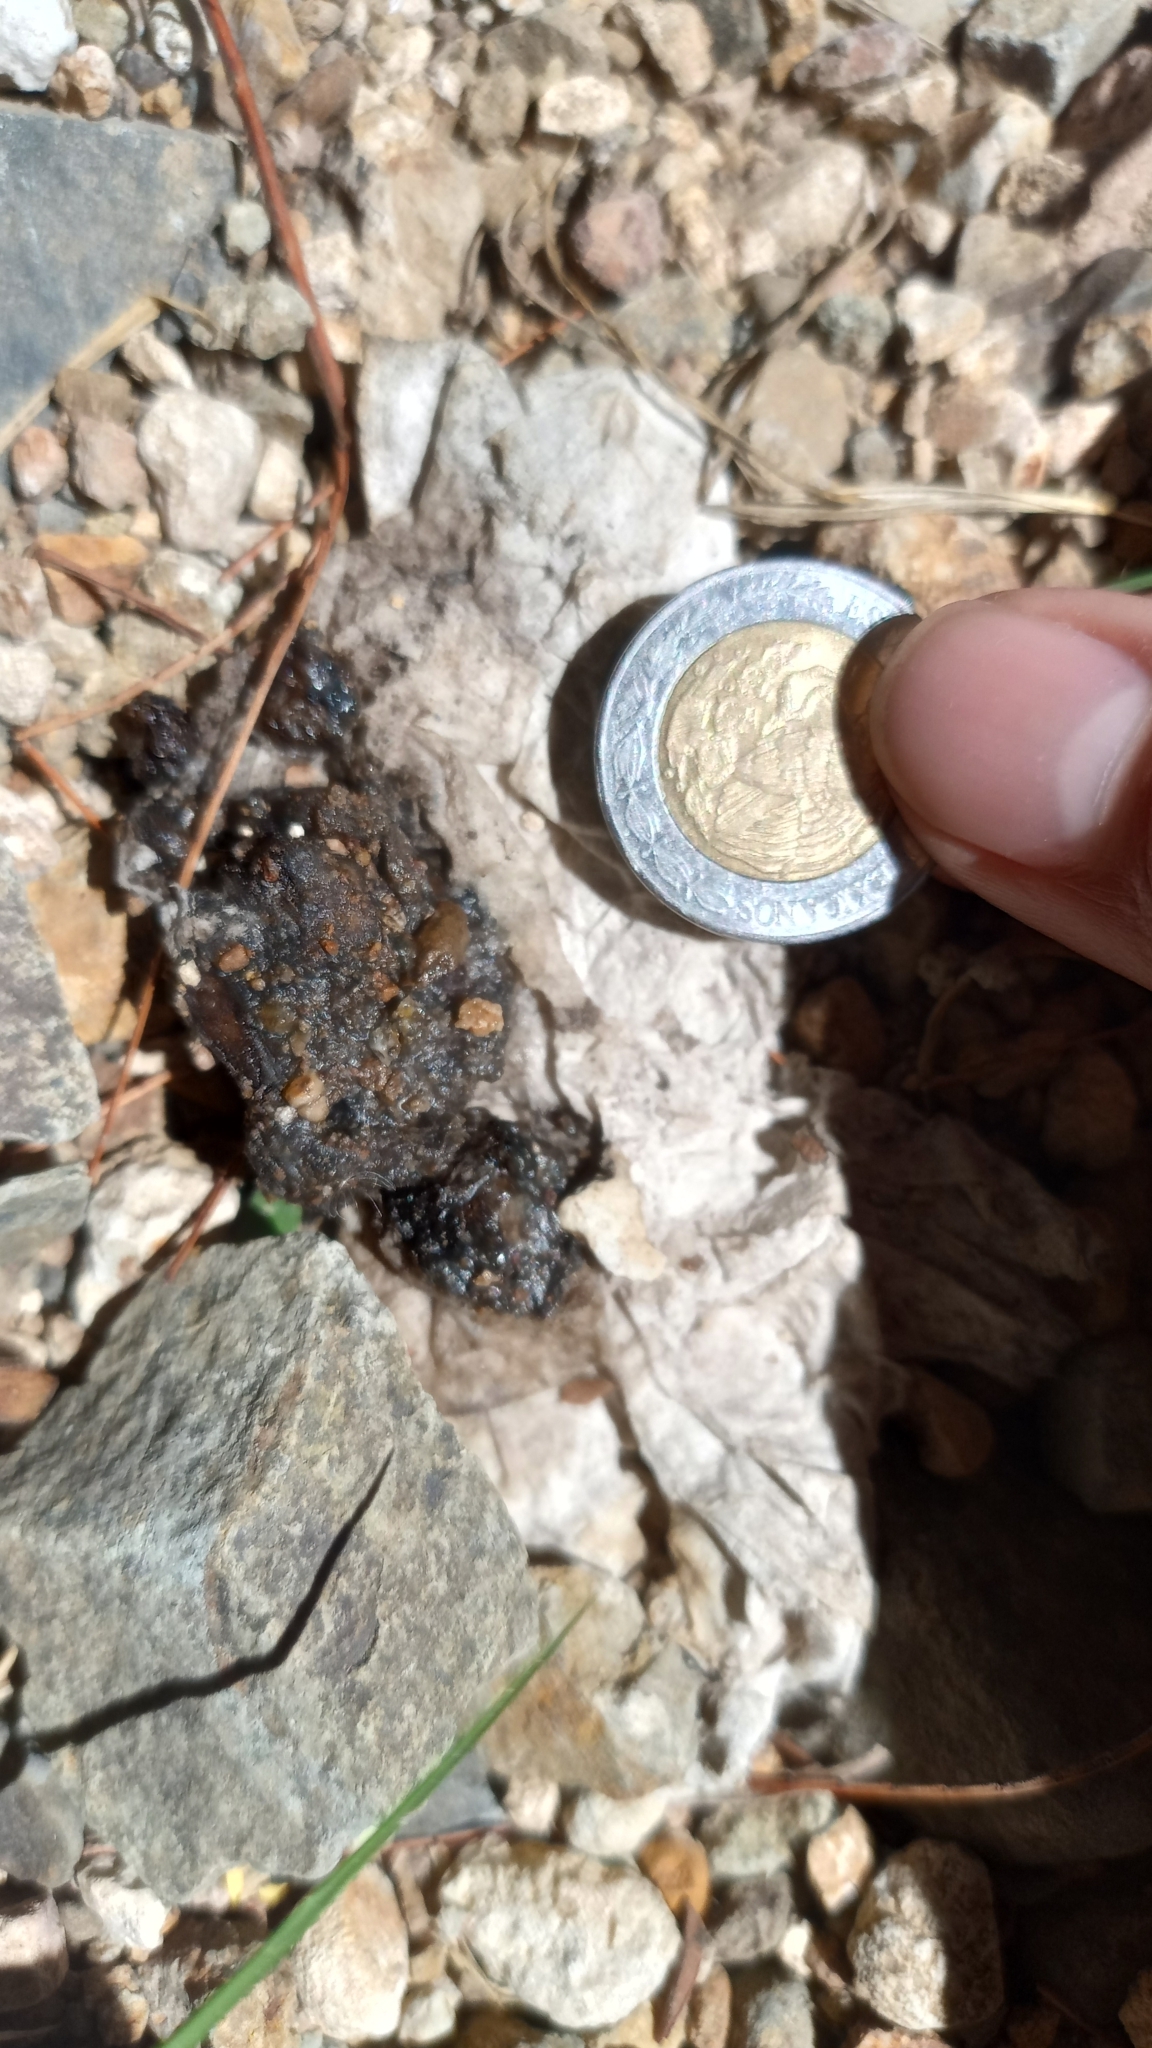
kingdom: Animalia
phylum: Chordata
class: Mammalia
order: Carnivora
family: Procyonidae
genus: Bassariscus
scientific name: Bassariscus astutus
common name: Ringtail
